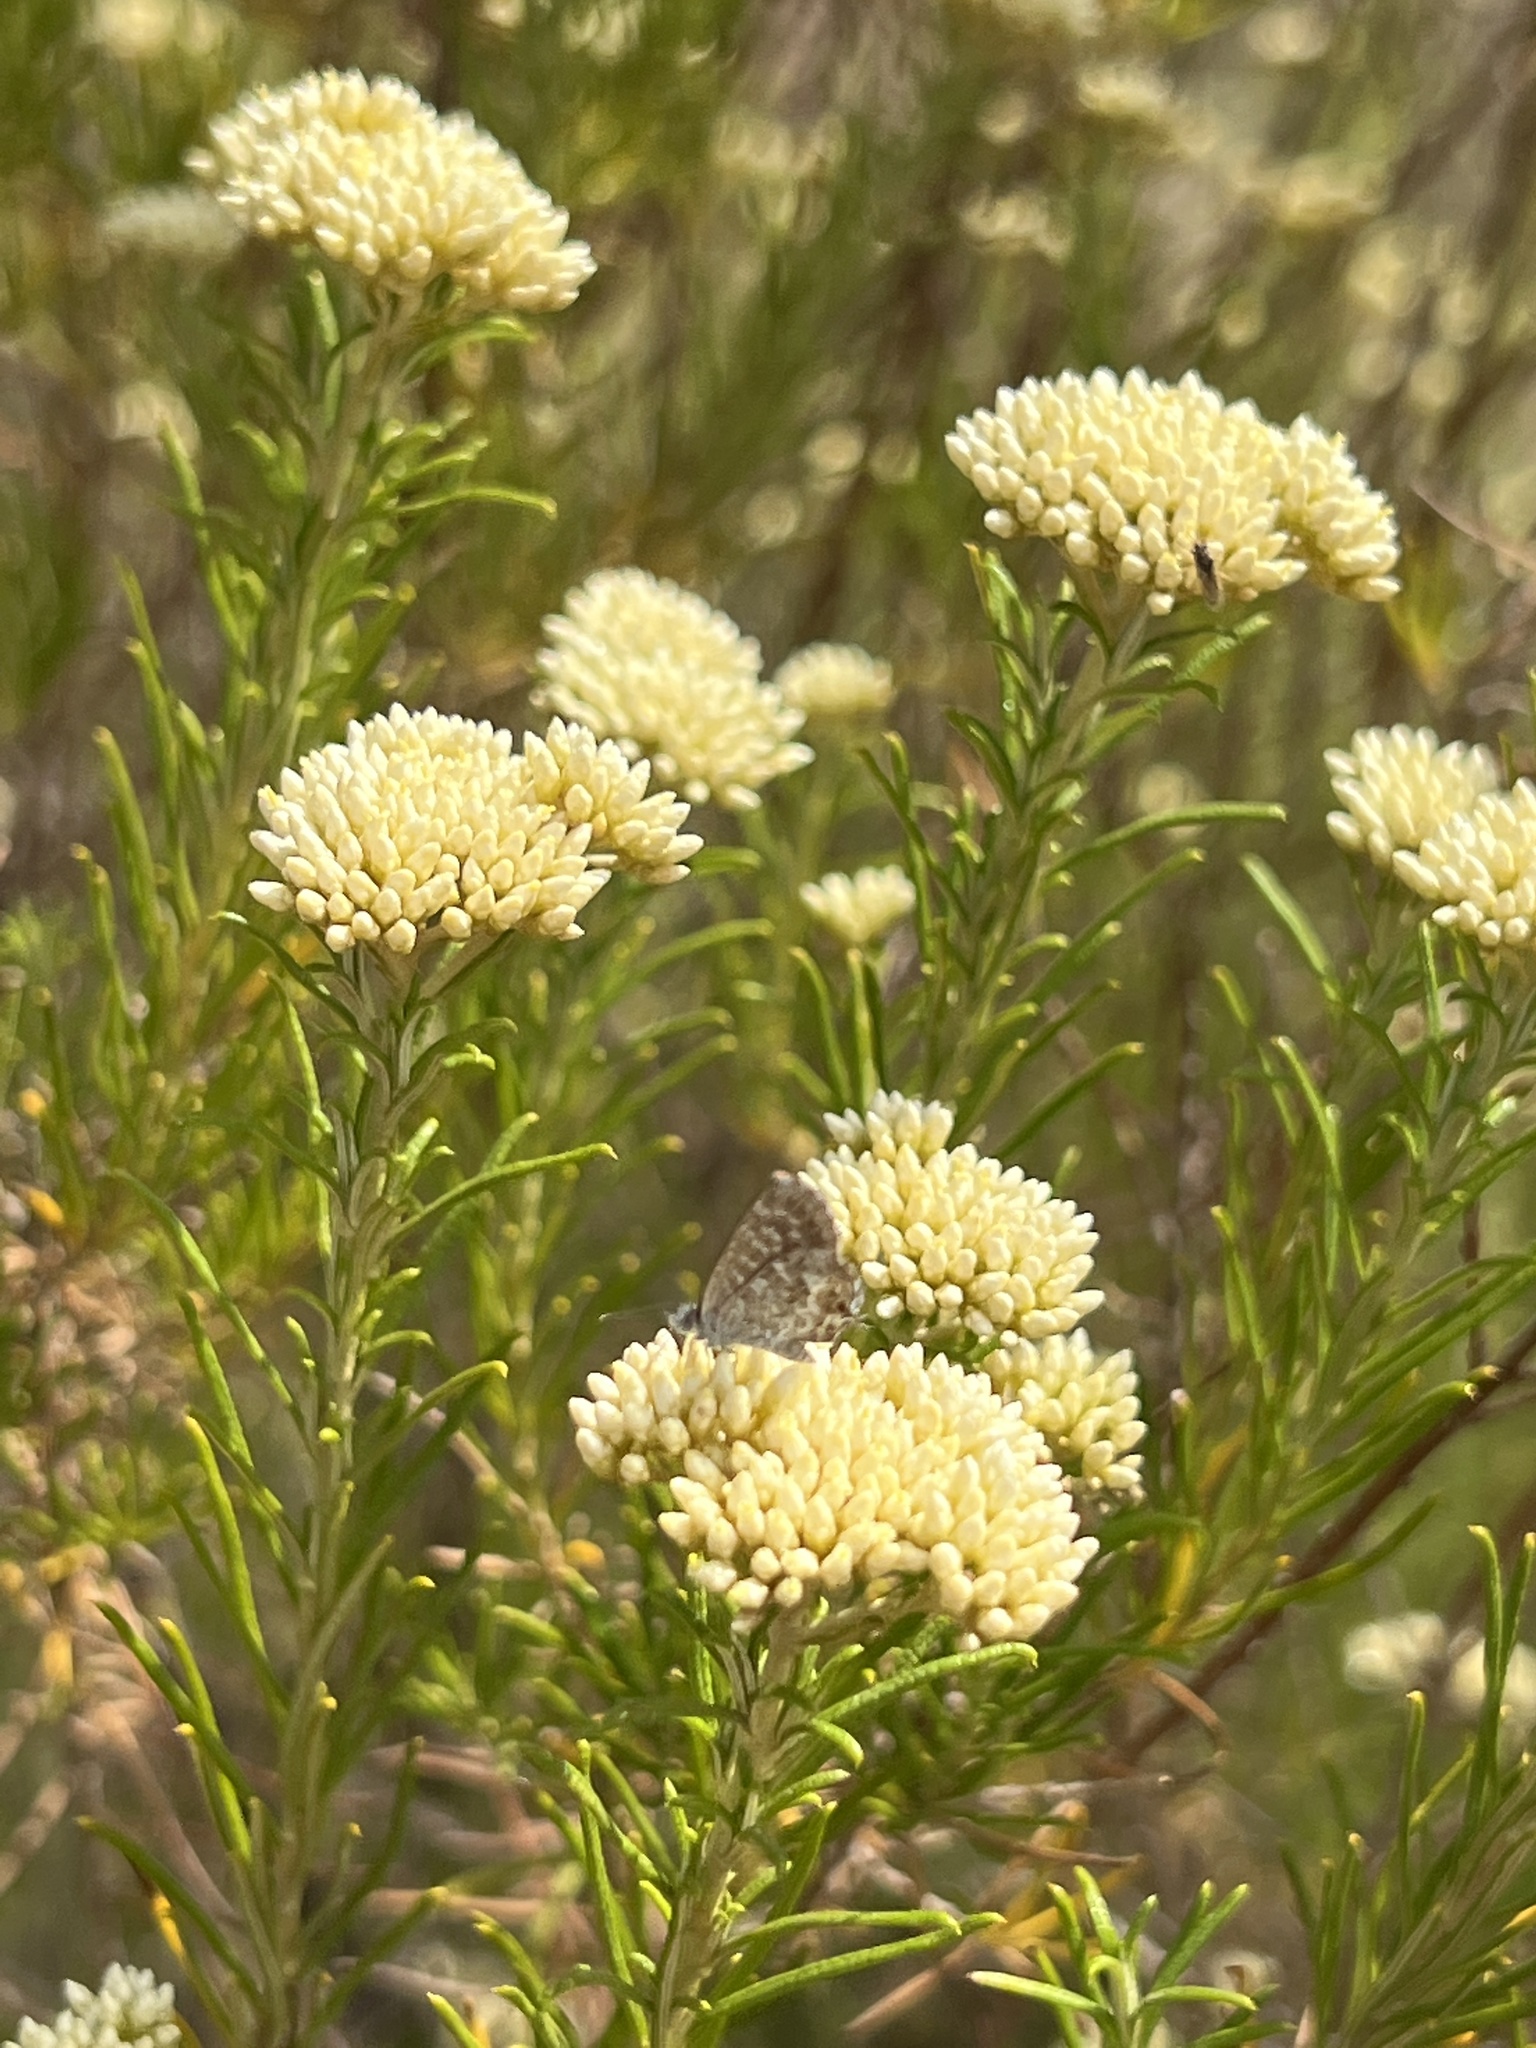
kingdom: Animalia
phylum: Arthropoda
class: Insecta
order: Lepidoptera
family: Lycaenidae
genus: Theclinesthes
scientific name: Theclinesthes serpentata
